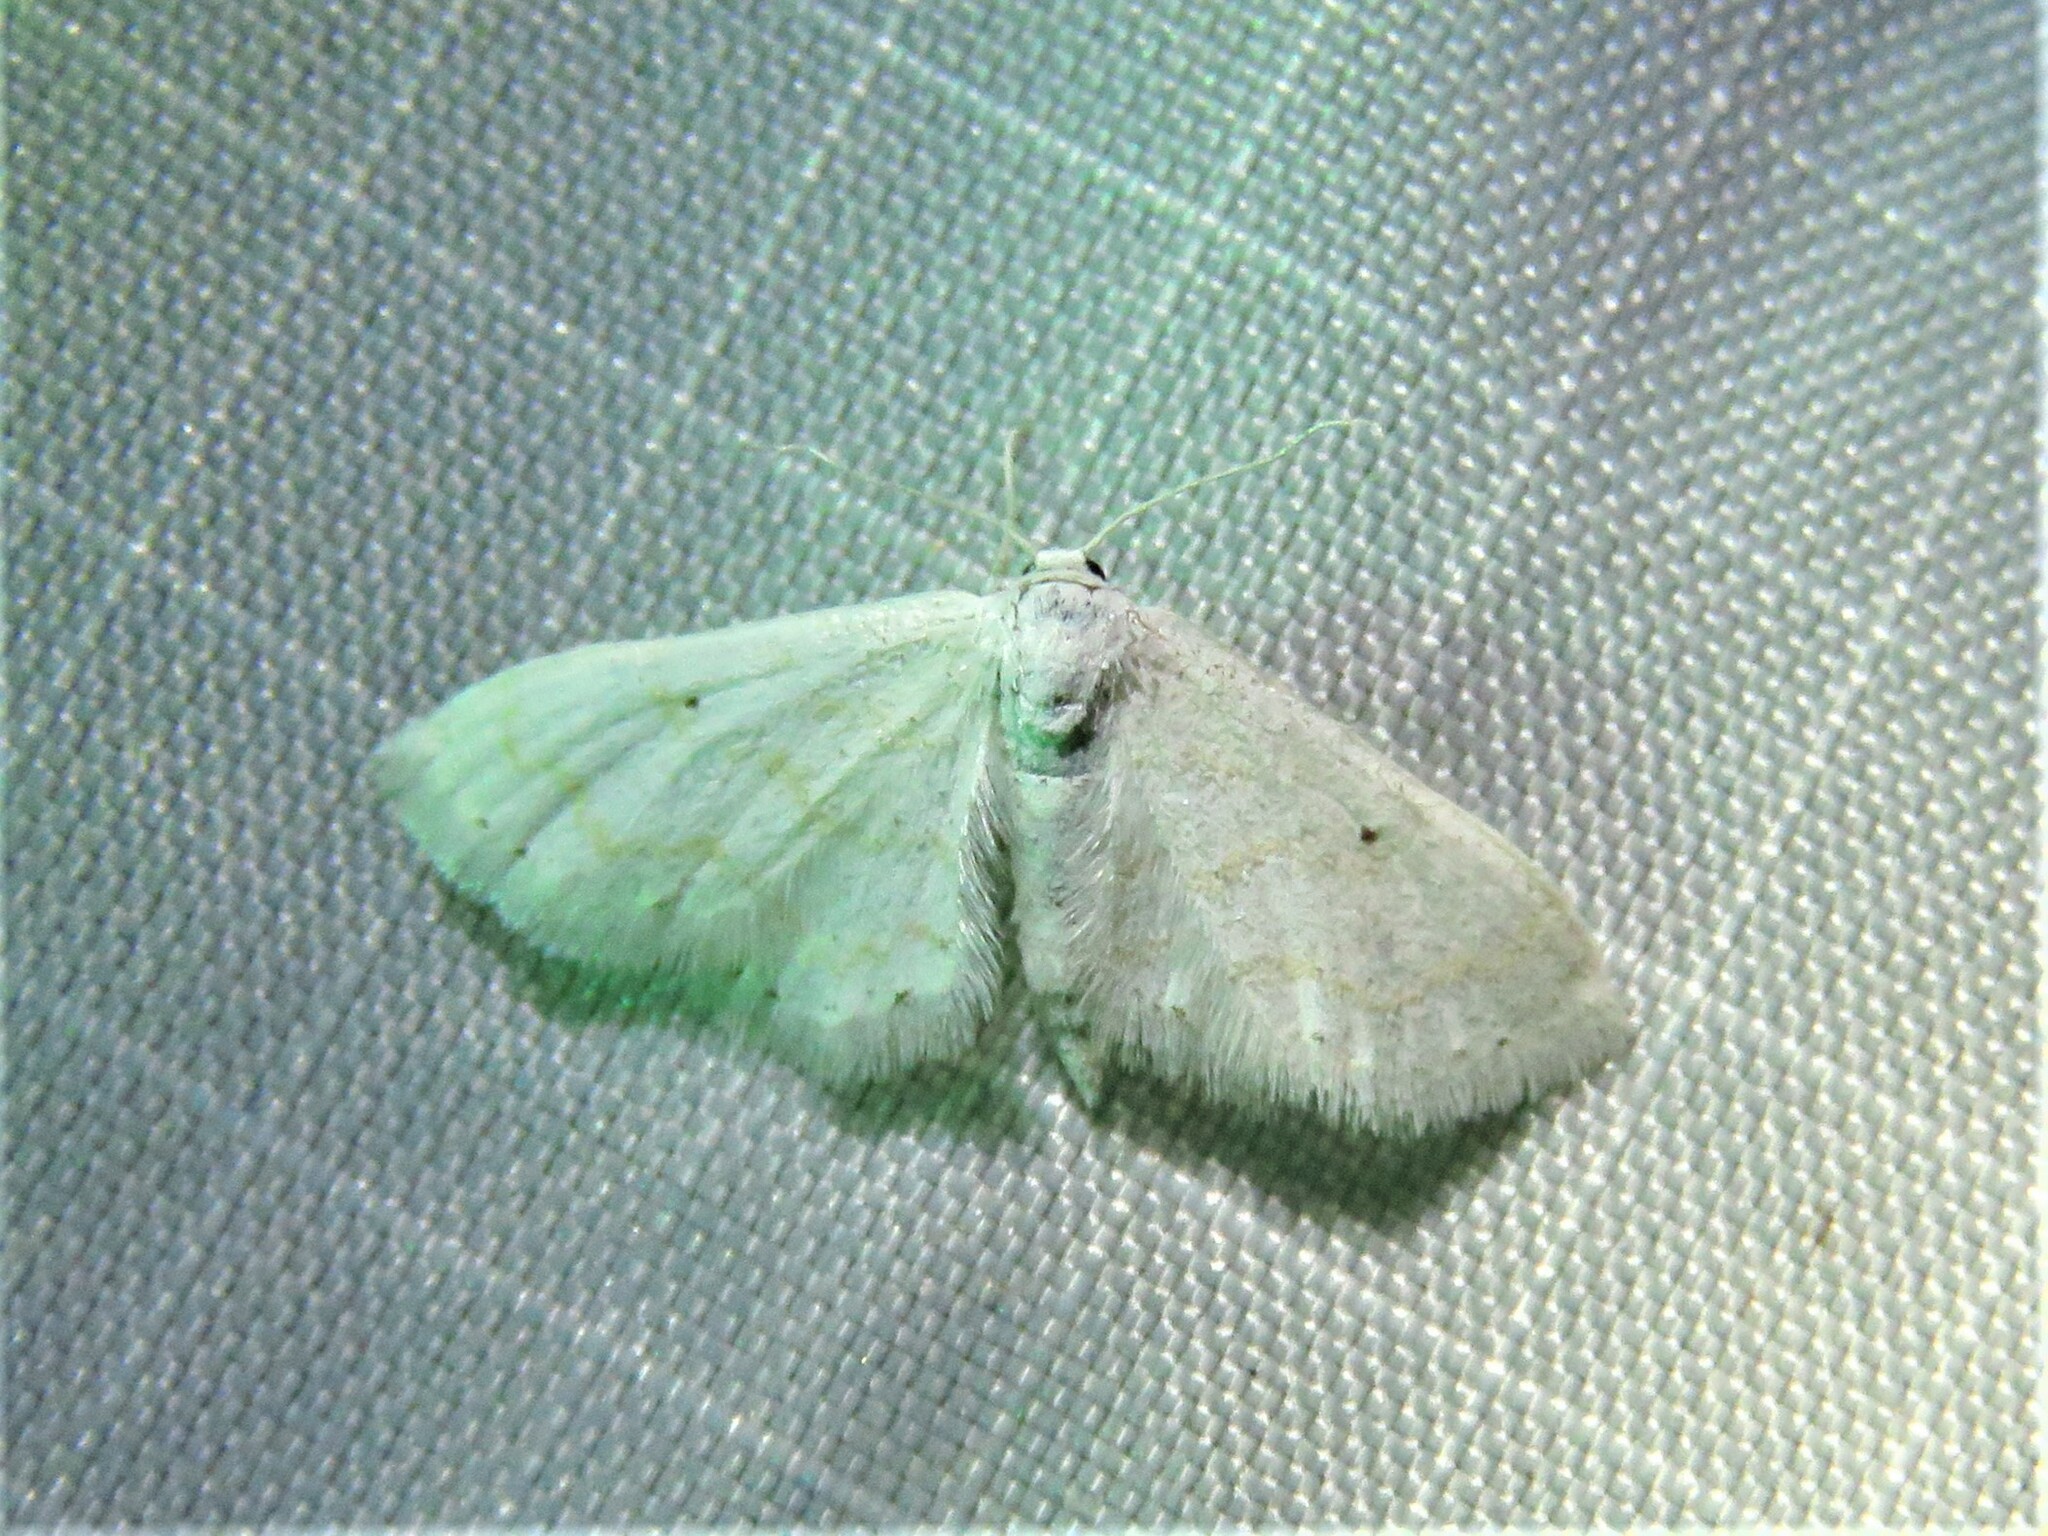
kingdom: Animalia
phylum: Arthropoda
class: Insecta
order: Lepidoptera
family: Geometridae
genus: Lobocleta
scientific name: Lobocleta peralbata
